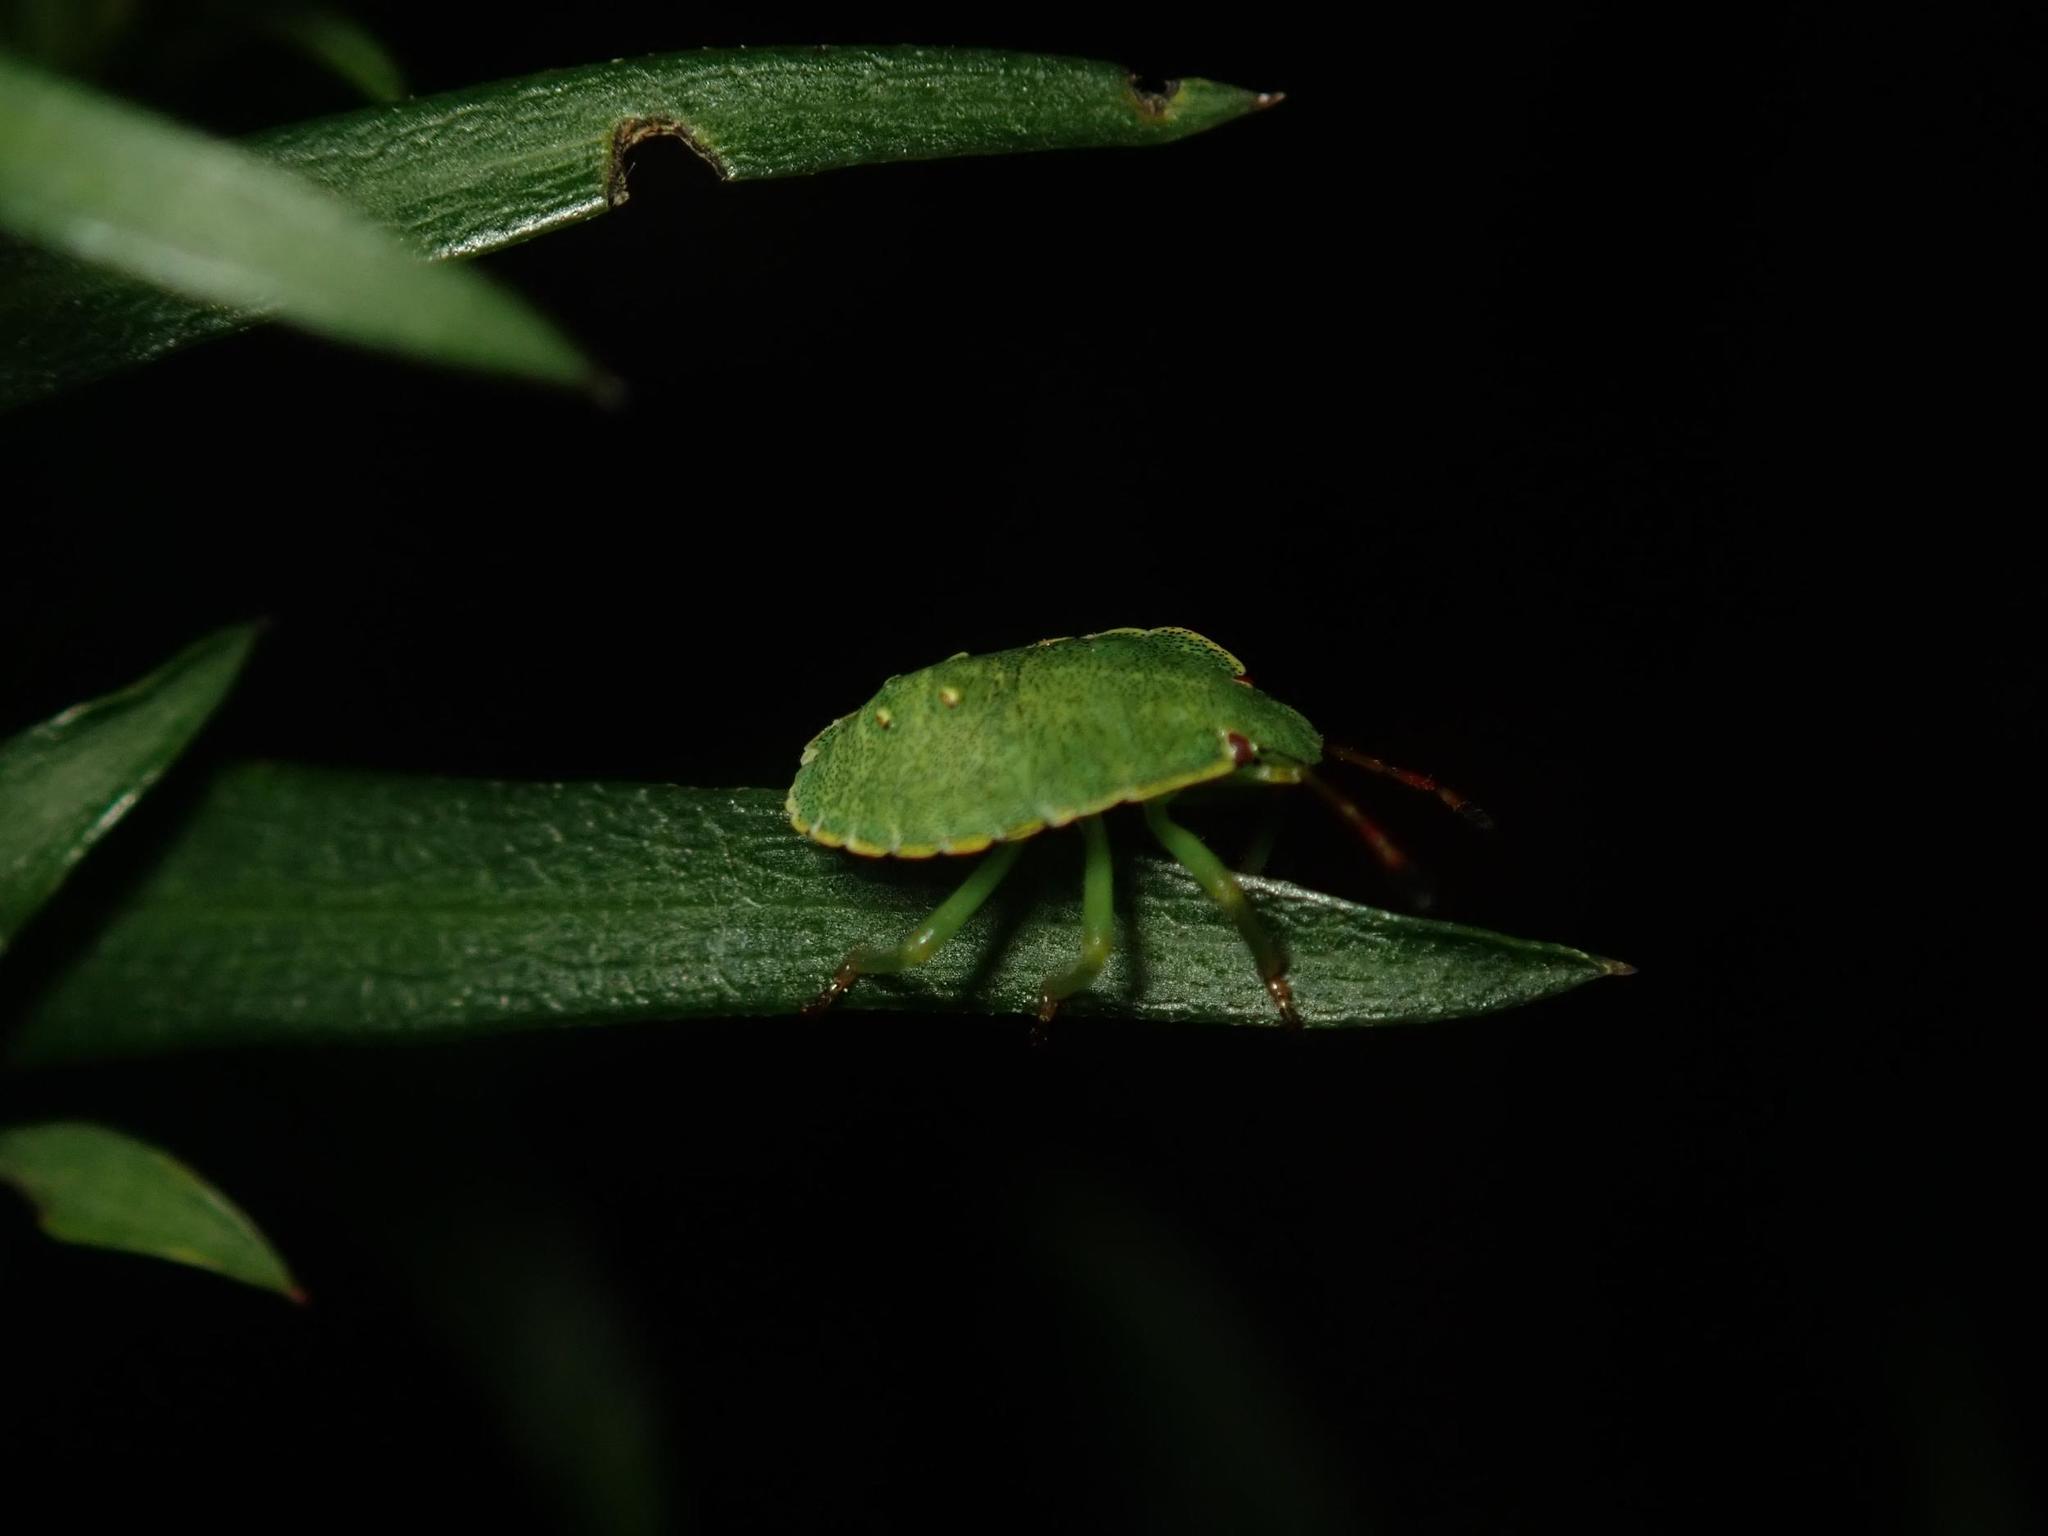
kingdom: Animalia
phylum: Arthropoda
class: Insecta
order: Hemiptera
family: Pentatomidae
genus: Palomena
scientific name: Palomena prasina
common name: Green shieldbug
